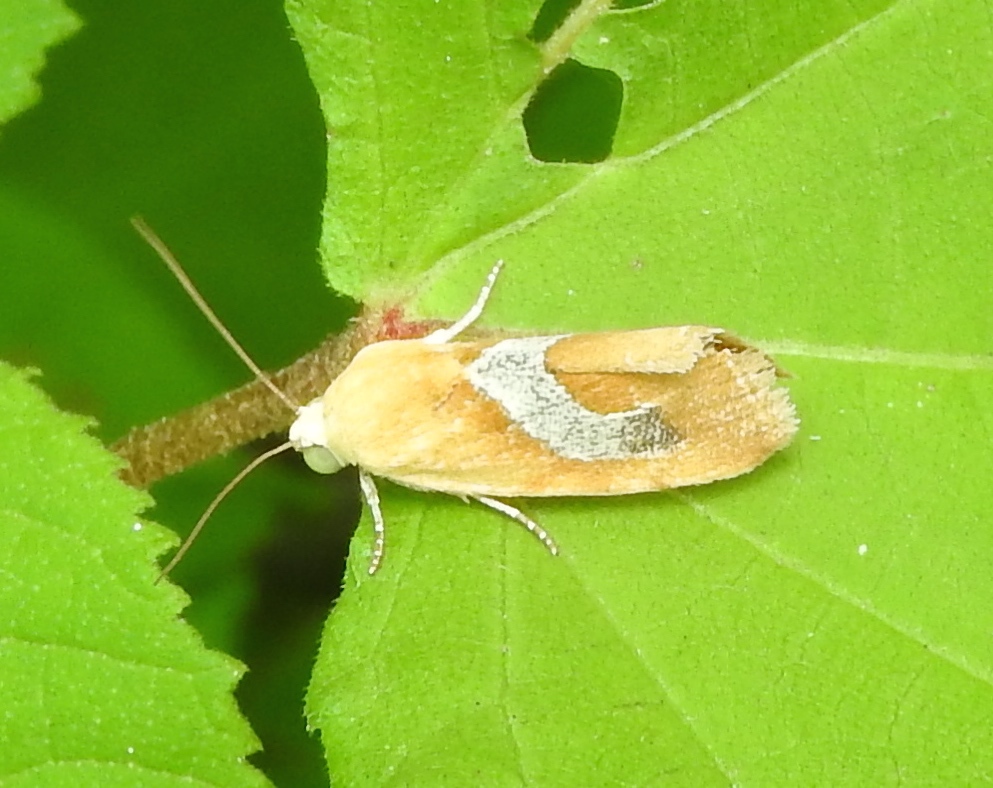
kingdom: Animalia
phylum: Arthropoda
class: Insecta
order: Lepidoptera
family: Noctuidae
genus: Ponometia
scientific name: Ponometia venustula
